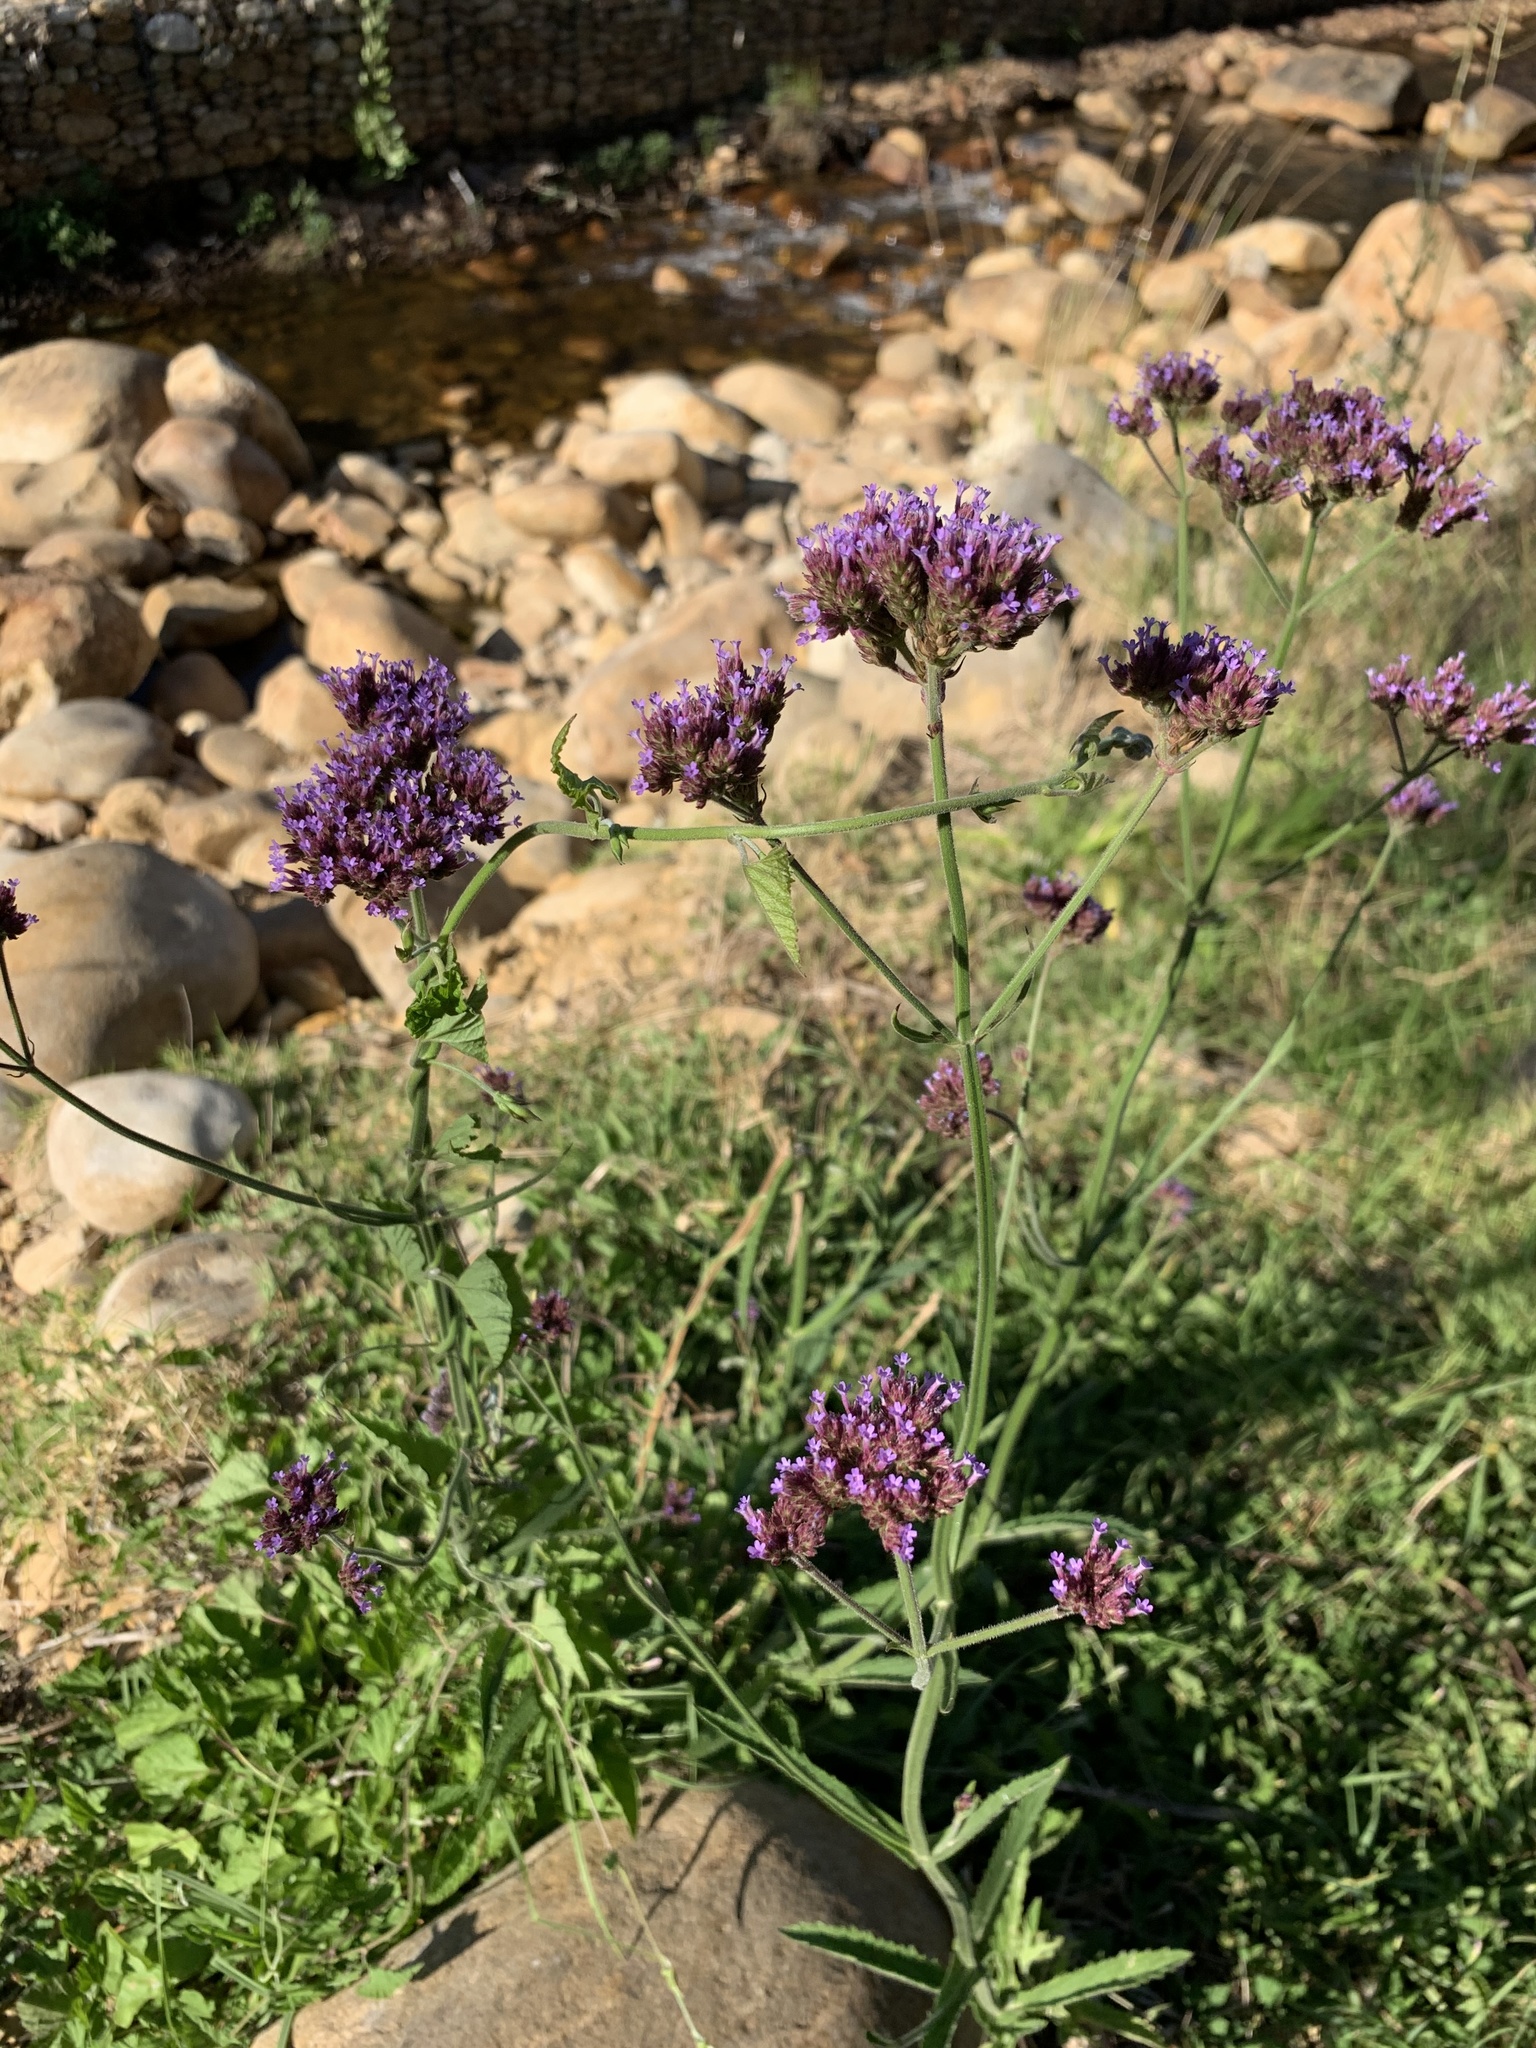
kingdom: Plantae
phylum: Tracheophyta
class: Magnoliopsida
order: Lamiales
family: Verbenaceae
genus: Verbena
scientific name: Verbena bonariensis
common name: Purpletop vervain
